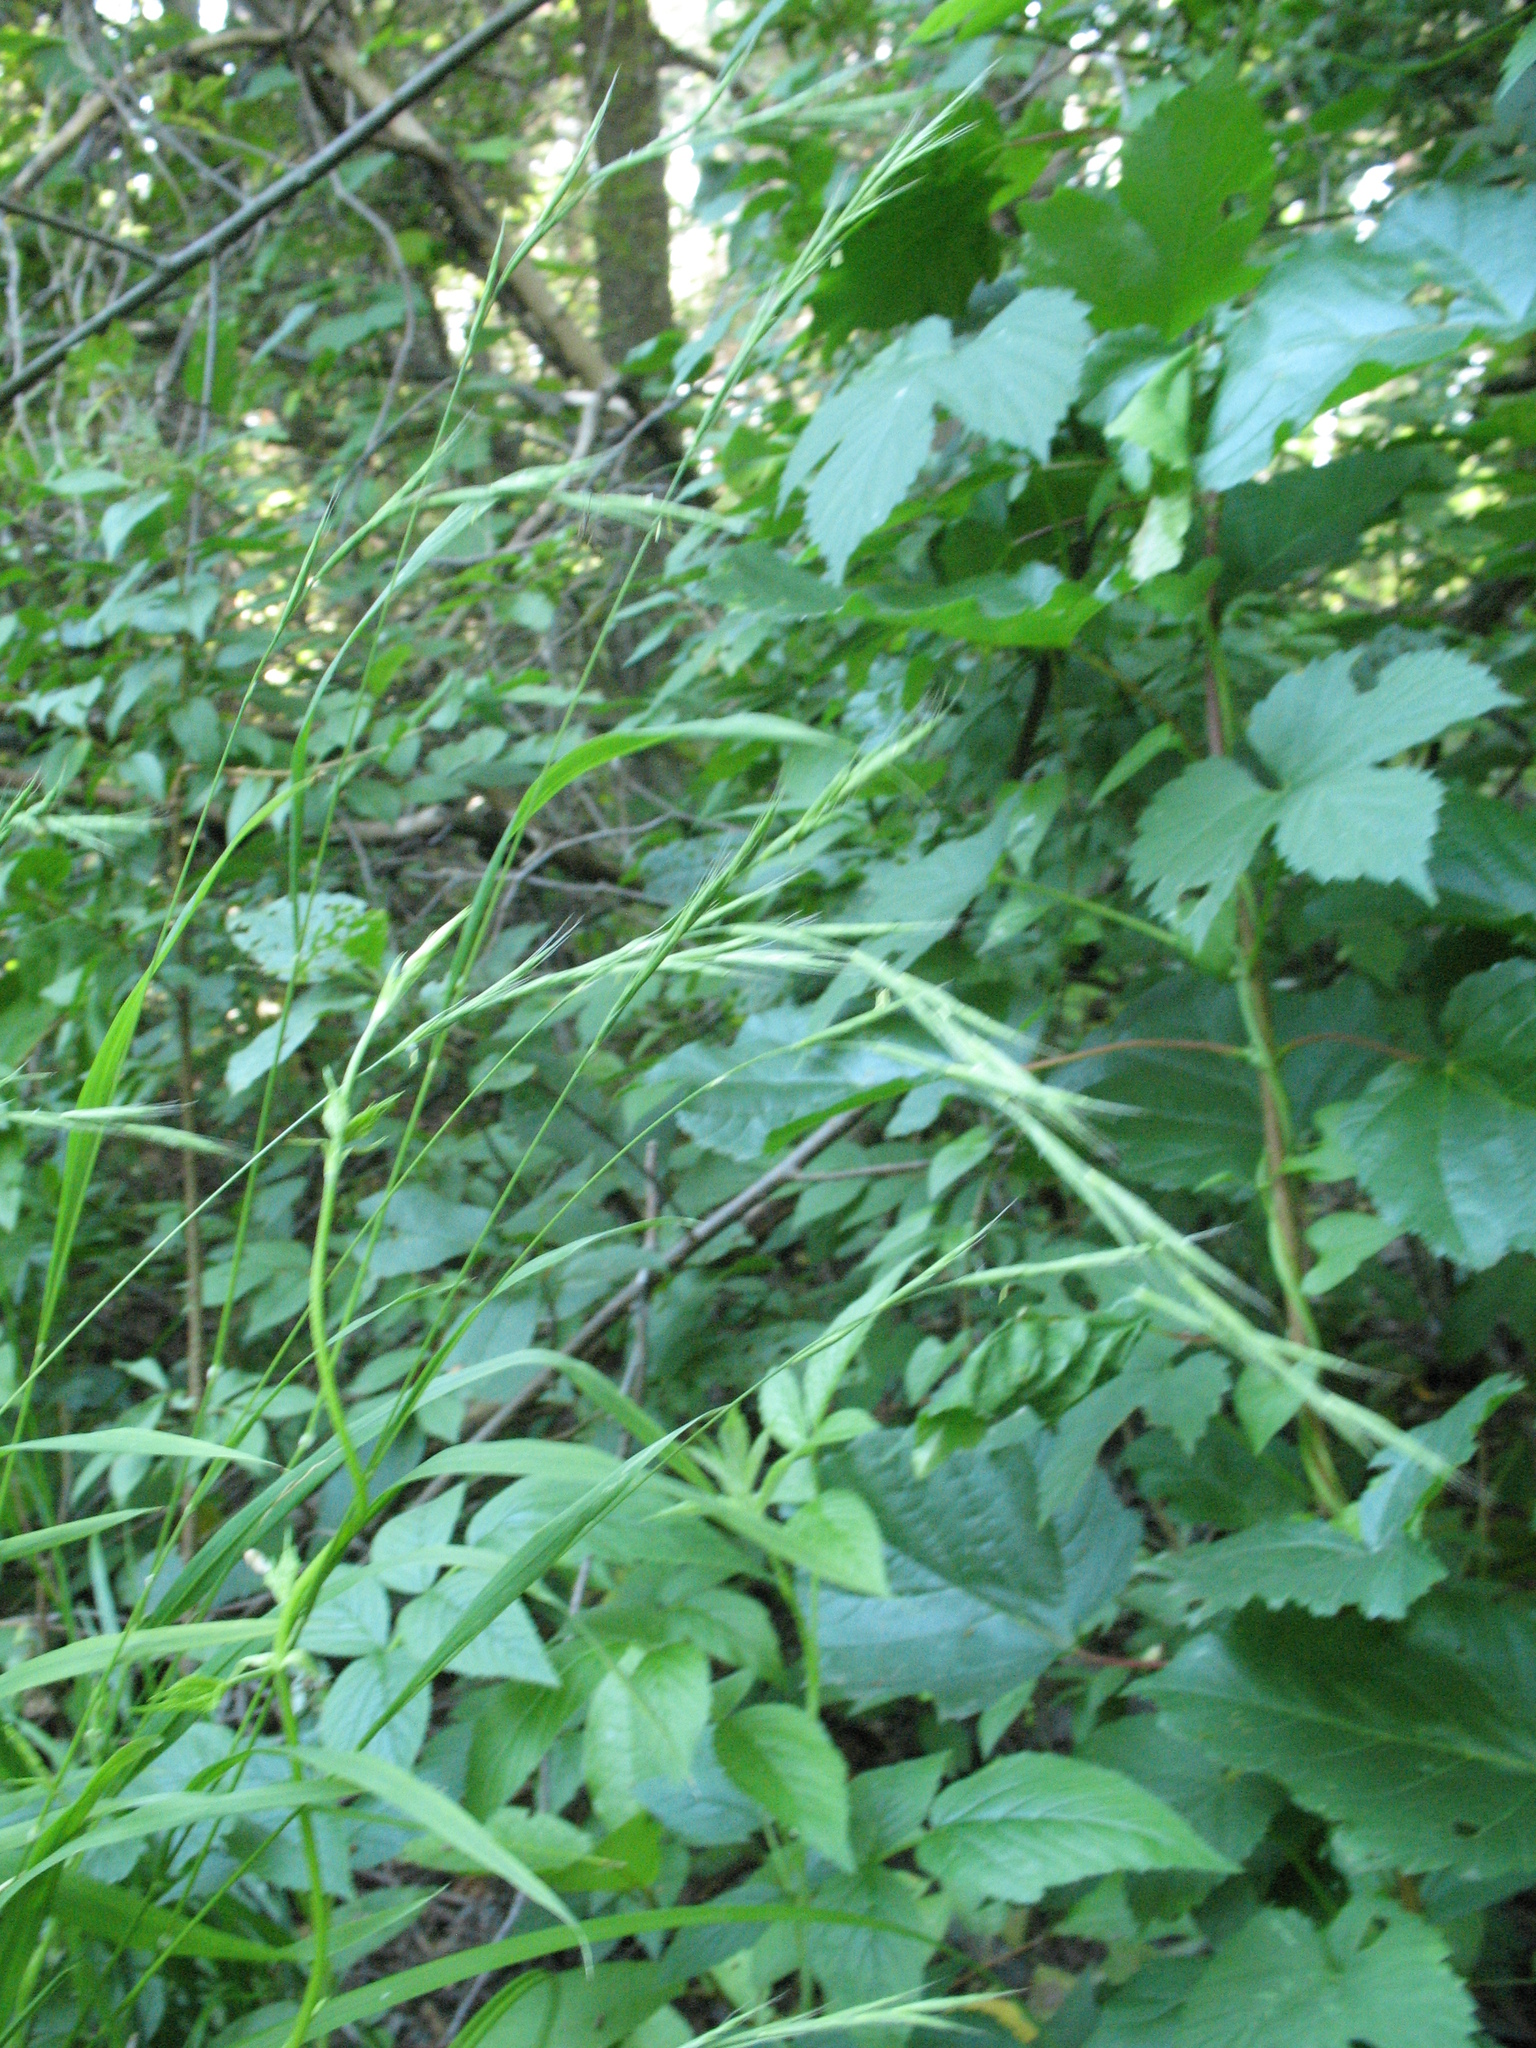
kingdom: Plantae
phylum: Tracheophyta
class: Liliopsida
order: Poales
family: Poaceae
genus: Brachypodium
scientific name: Brachypodium sylvaticum
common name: False-brome
